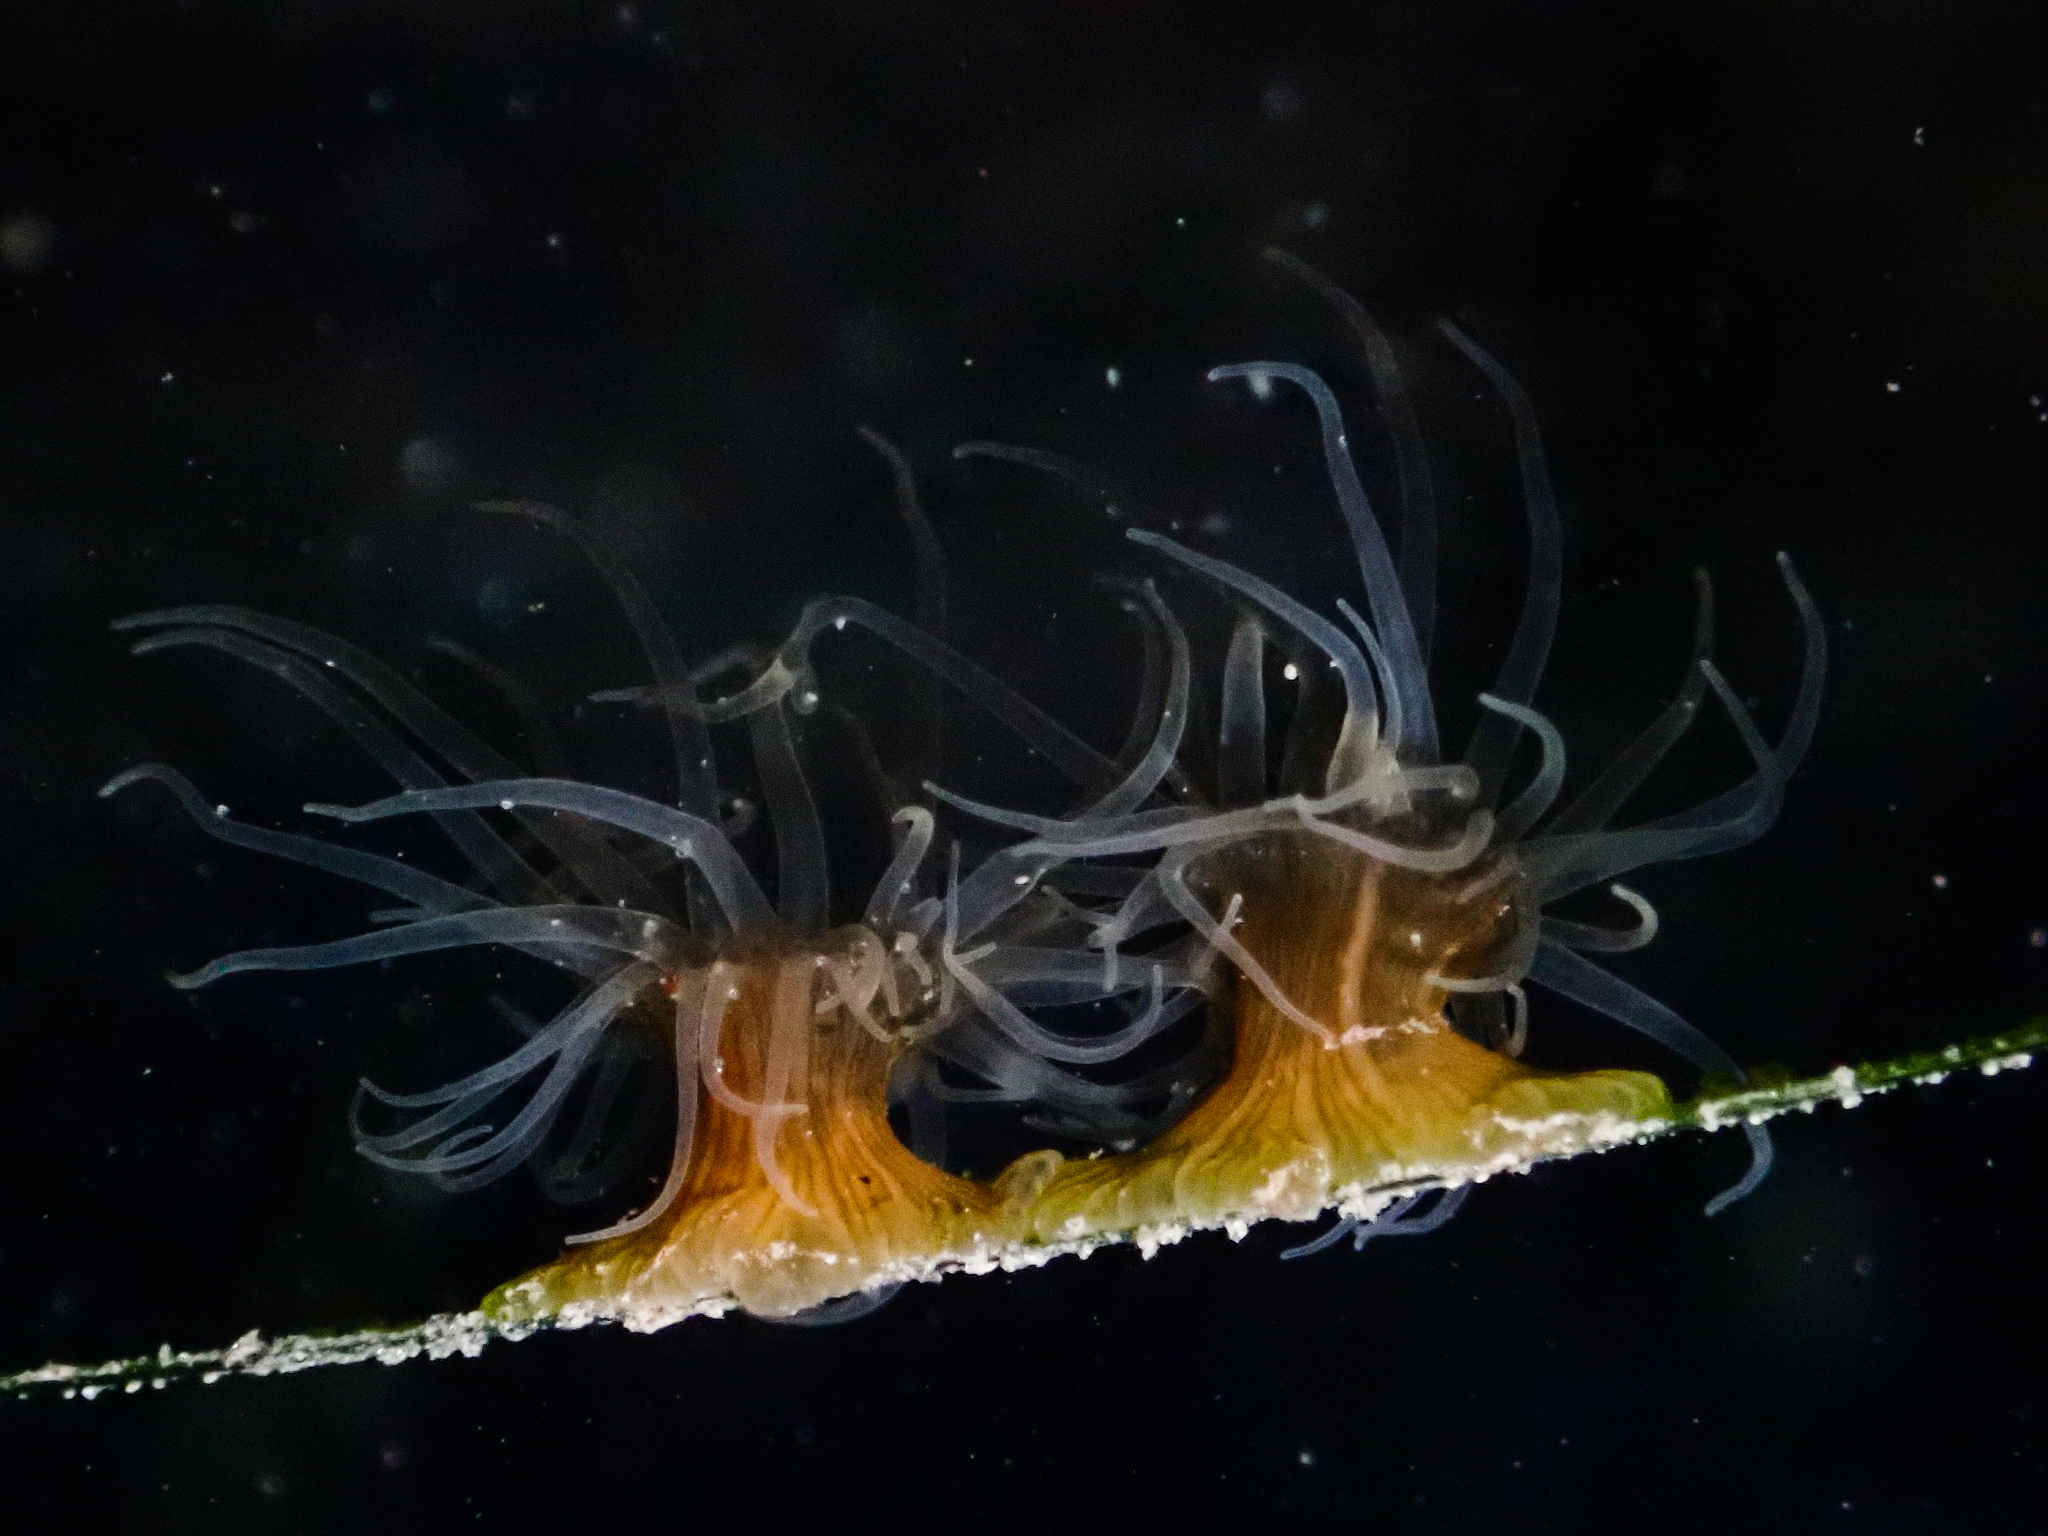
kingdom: Animalia
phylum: Cnidaria
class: Anthozoa
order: Actiniaria
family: Sagartiidae
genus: Sagartia
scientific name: Sagartia viduata
